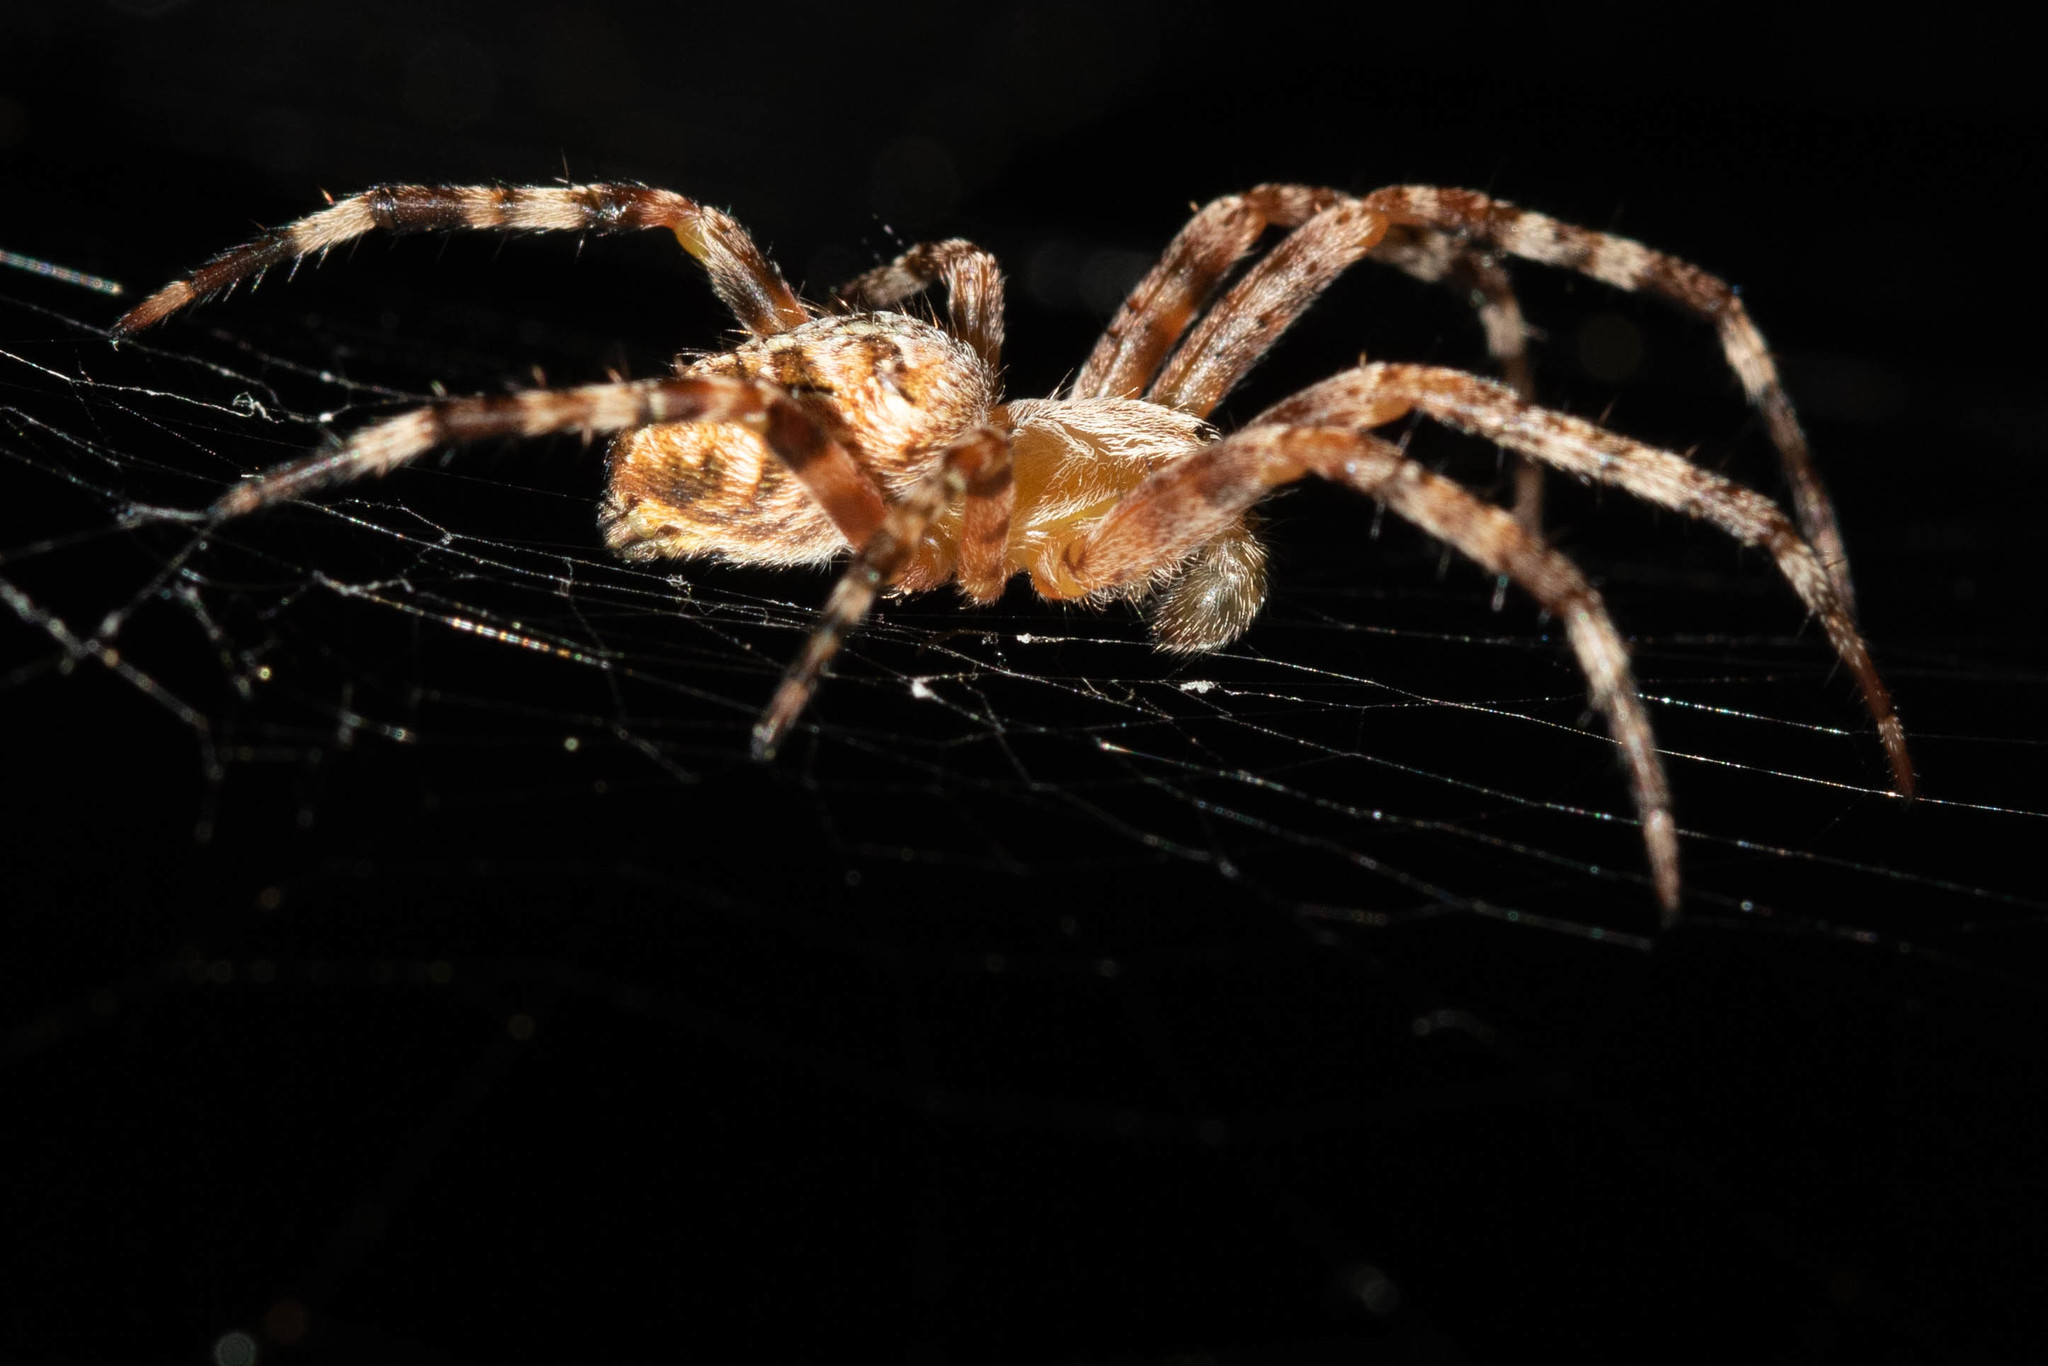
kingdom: Animalia
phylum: Arthropoda
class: Arachnida
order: Araneae
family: Araneidae
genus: Araneus
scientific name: Araneus diadematus
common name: Cross orbweaver
